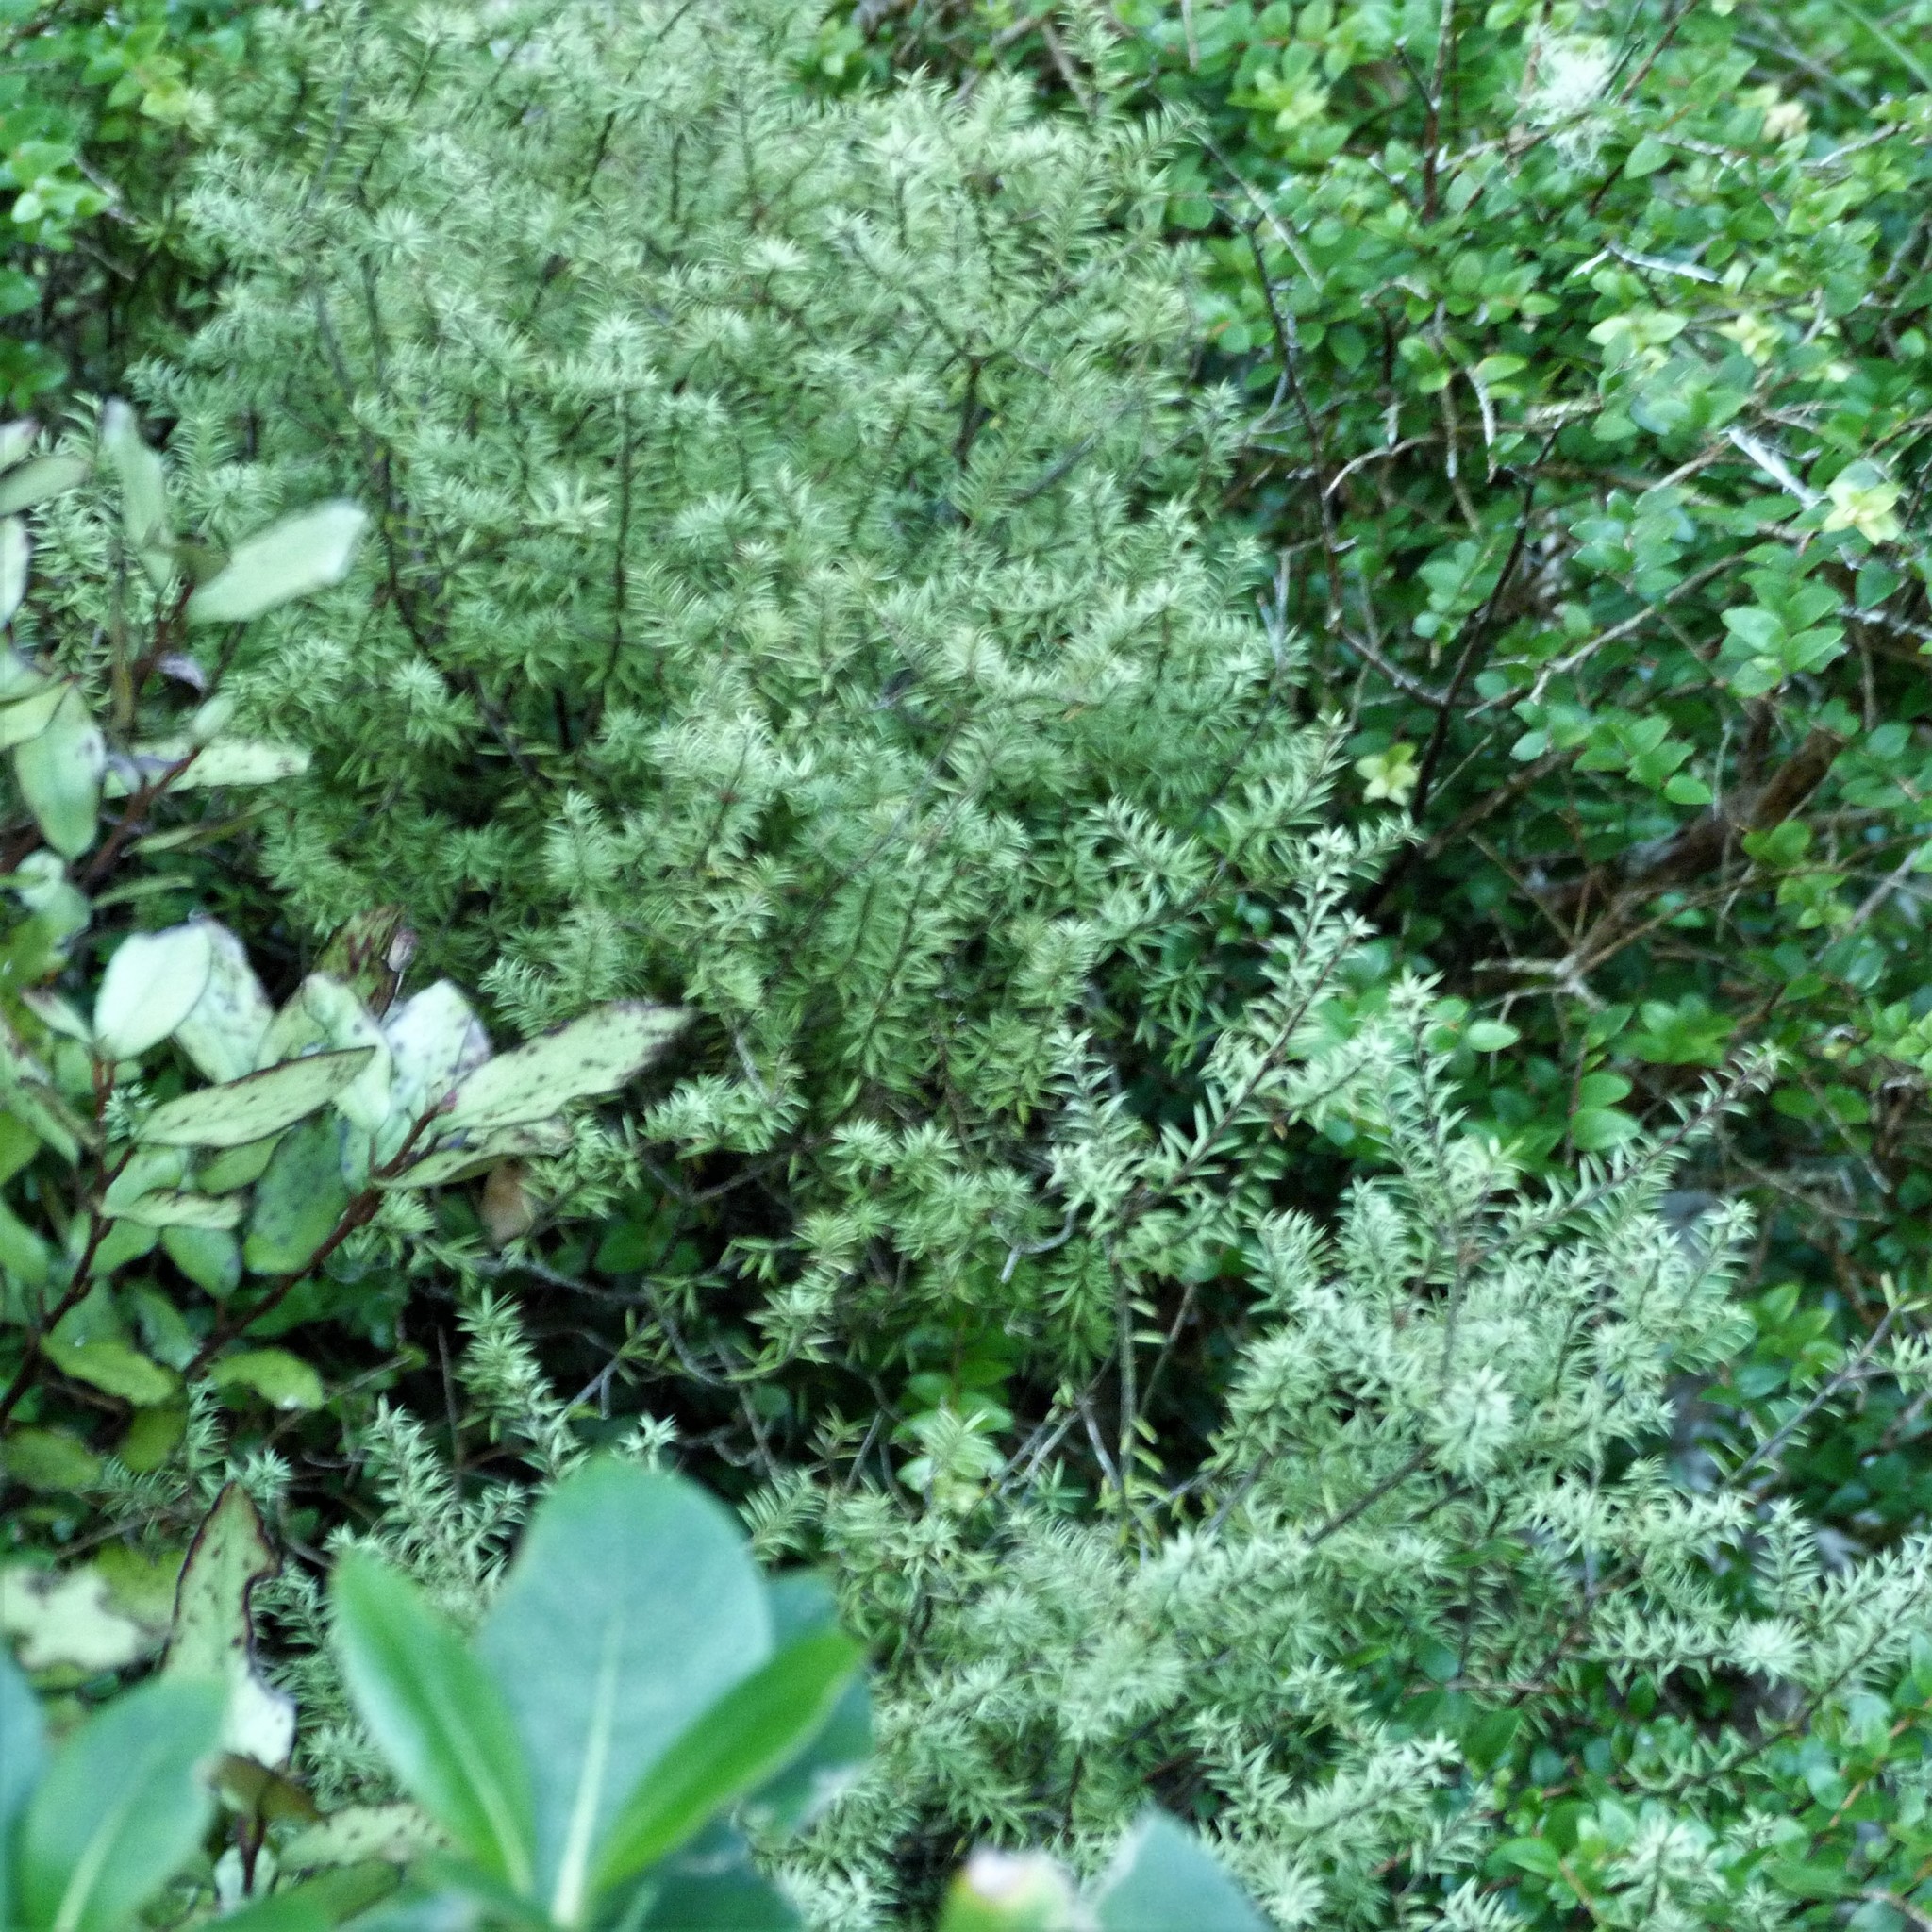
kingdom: Plantae
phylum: Tracheophyta
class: Magnoliopsida
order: Ericales
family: Ericaceae
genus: Leptecophylla
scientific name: Leptecophylla juniperina
